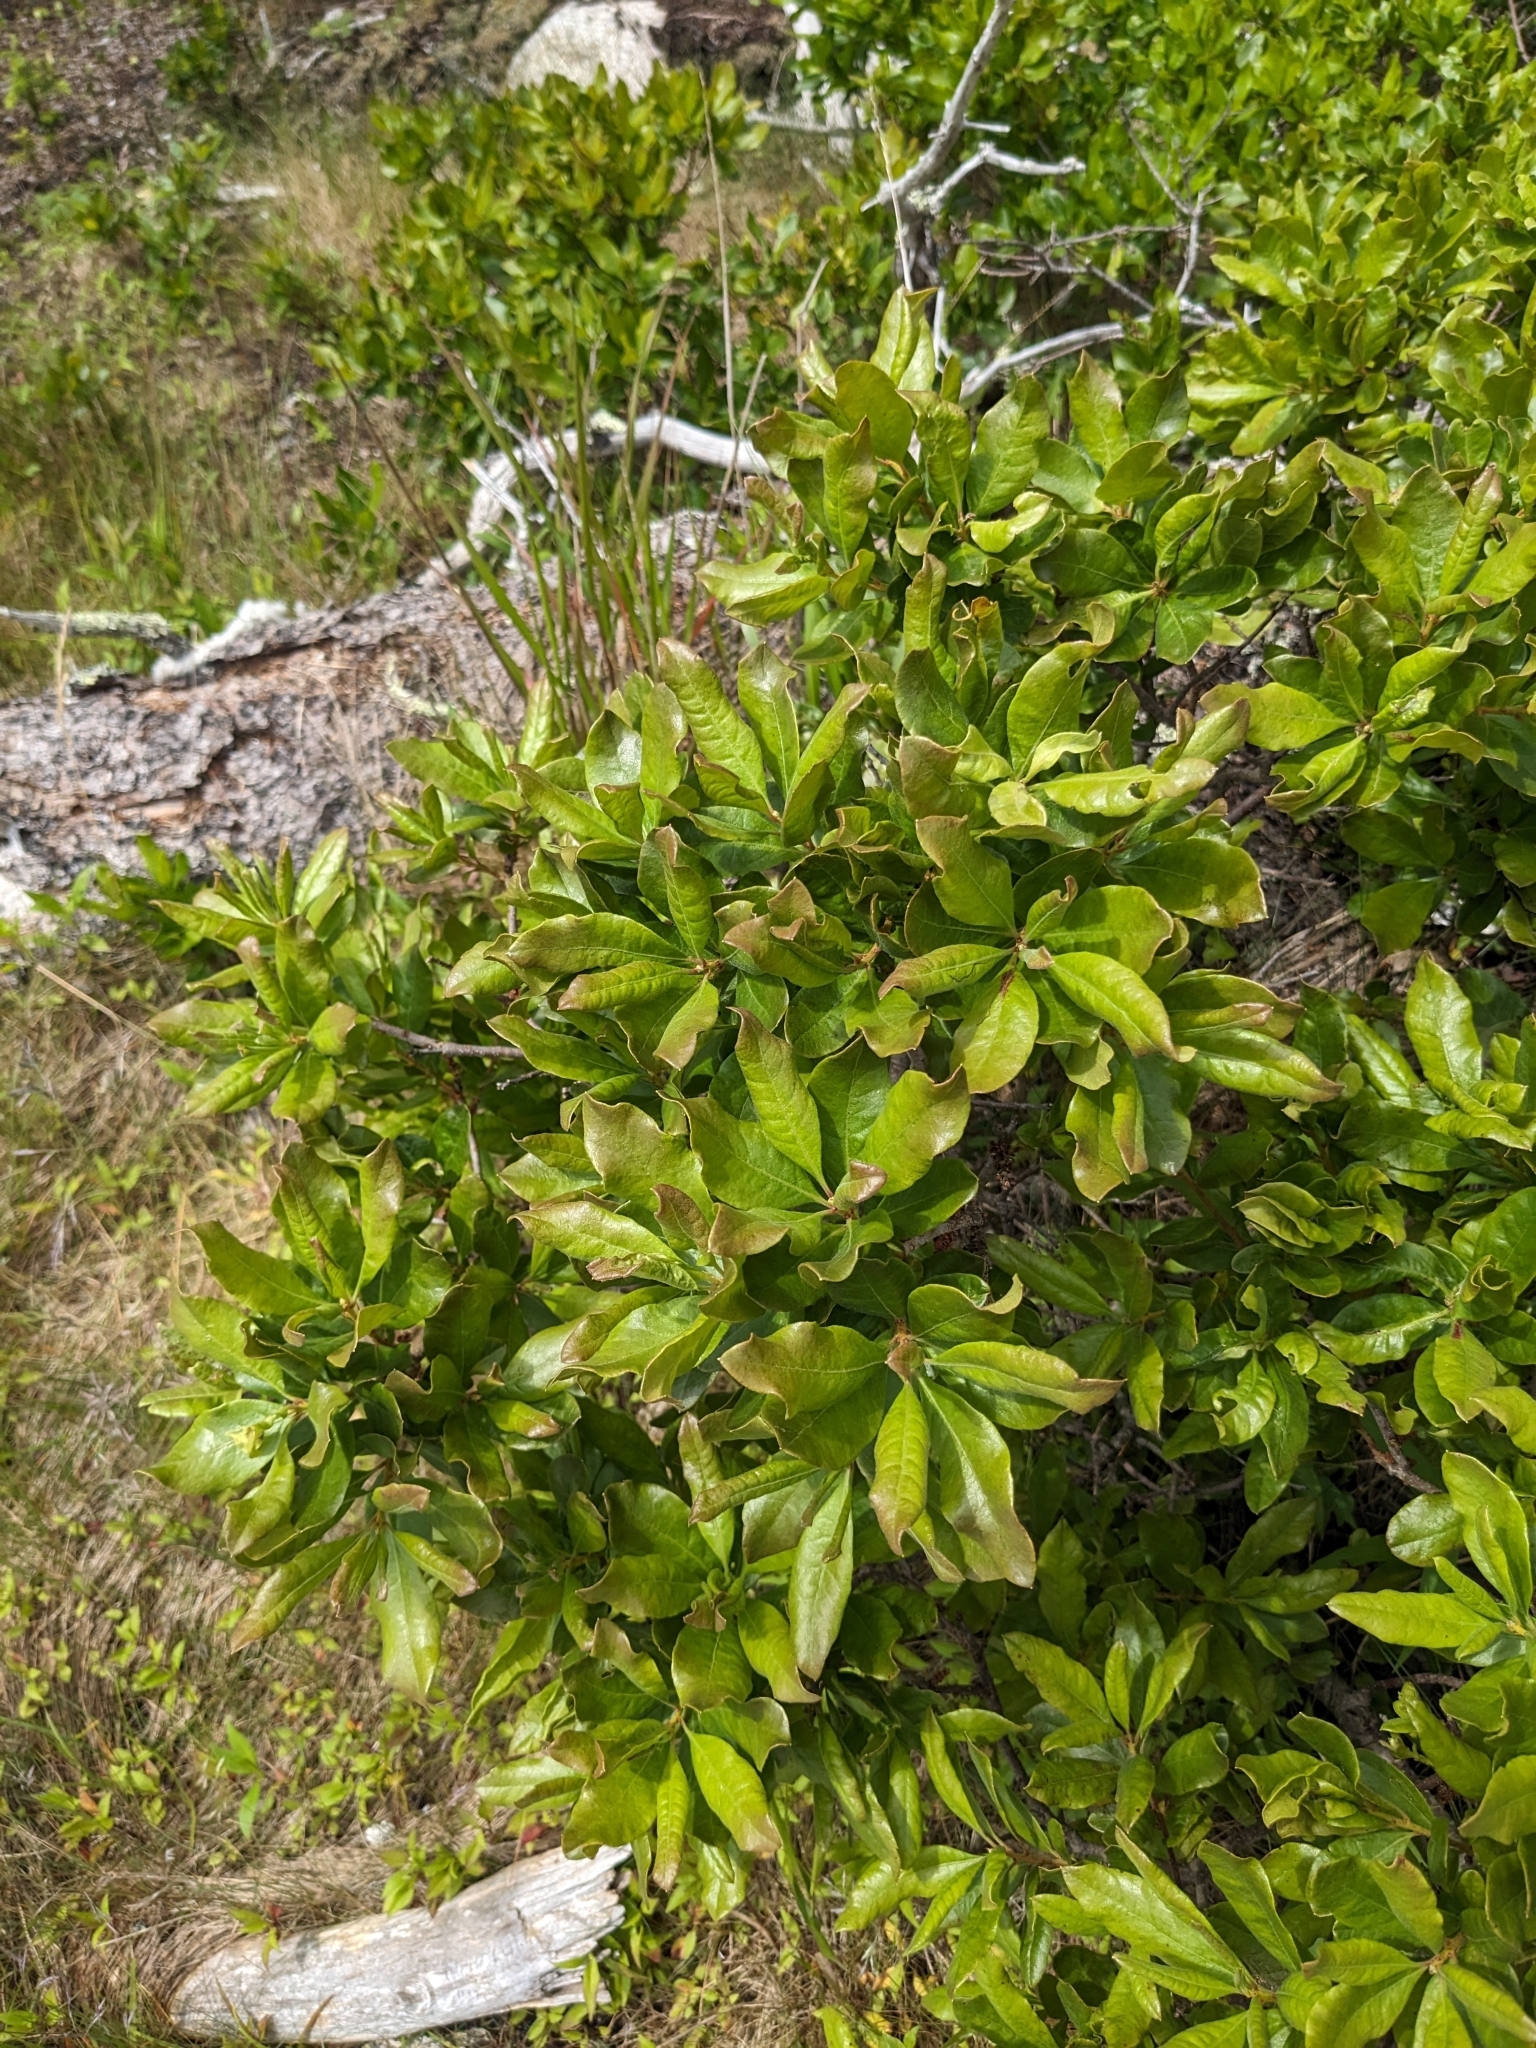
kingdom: Plantae
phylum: Tracheophyta
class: Magnoliopsida
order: Fagales
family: Myricaceae
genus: Morella
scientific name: Morella pensylvanica
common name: Northern bayberry
